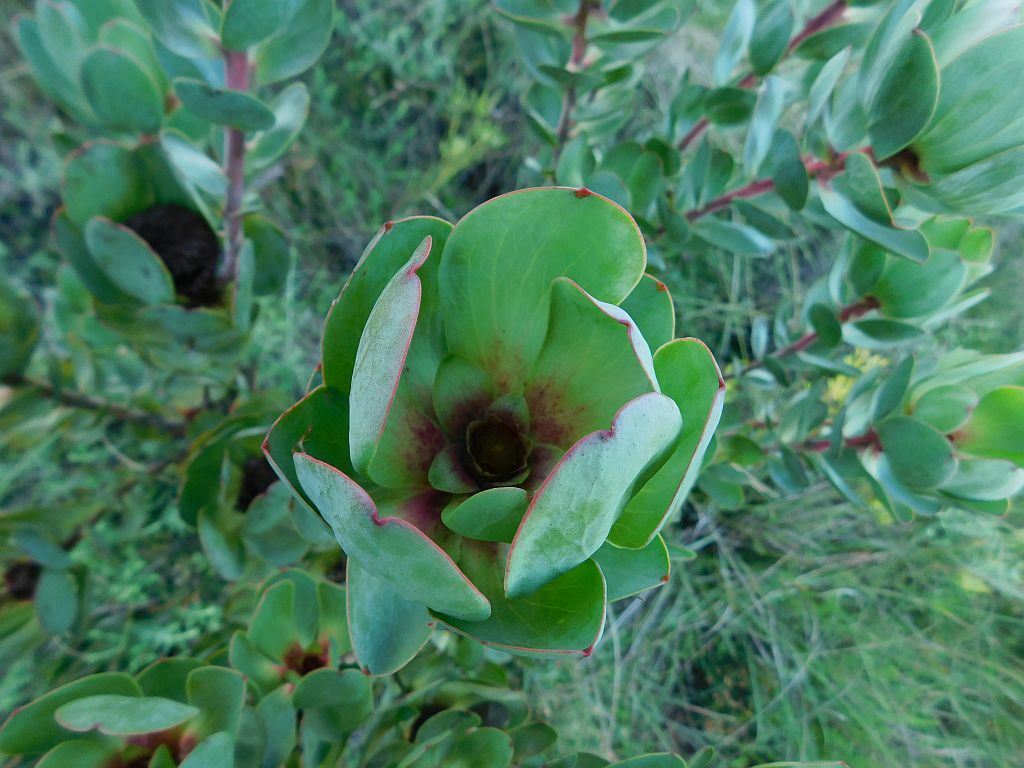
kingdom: Plantae
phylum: Tracheophyta
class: Magnoliopsida
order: Proteales
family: Proteaceae
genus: Leucadendron
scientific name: Leucadendron elimense
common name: Elim conebush
